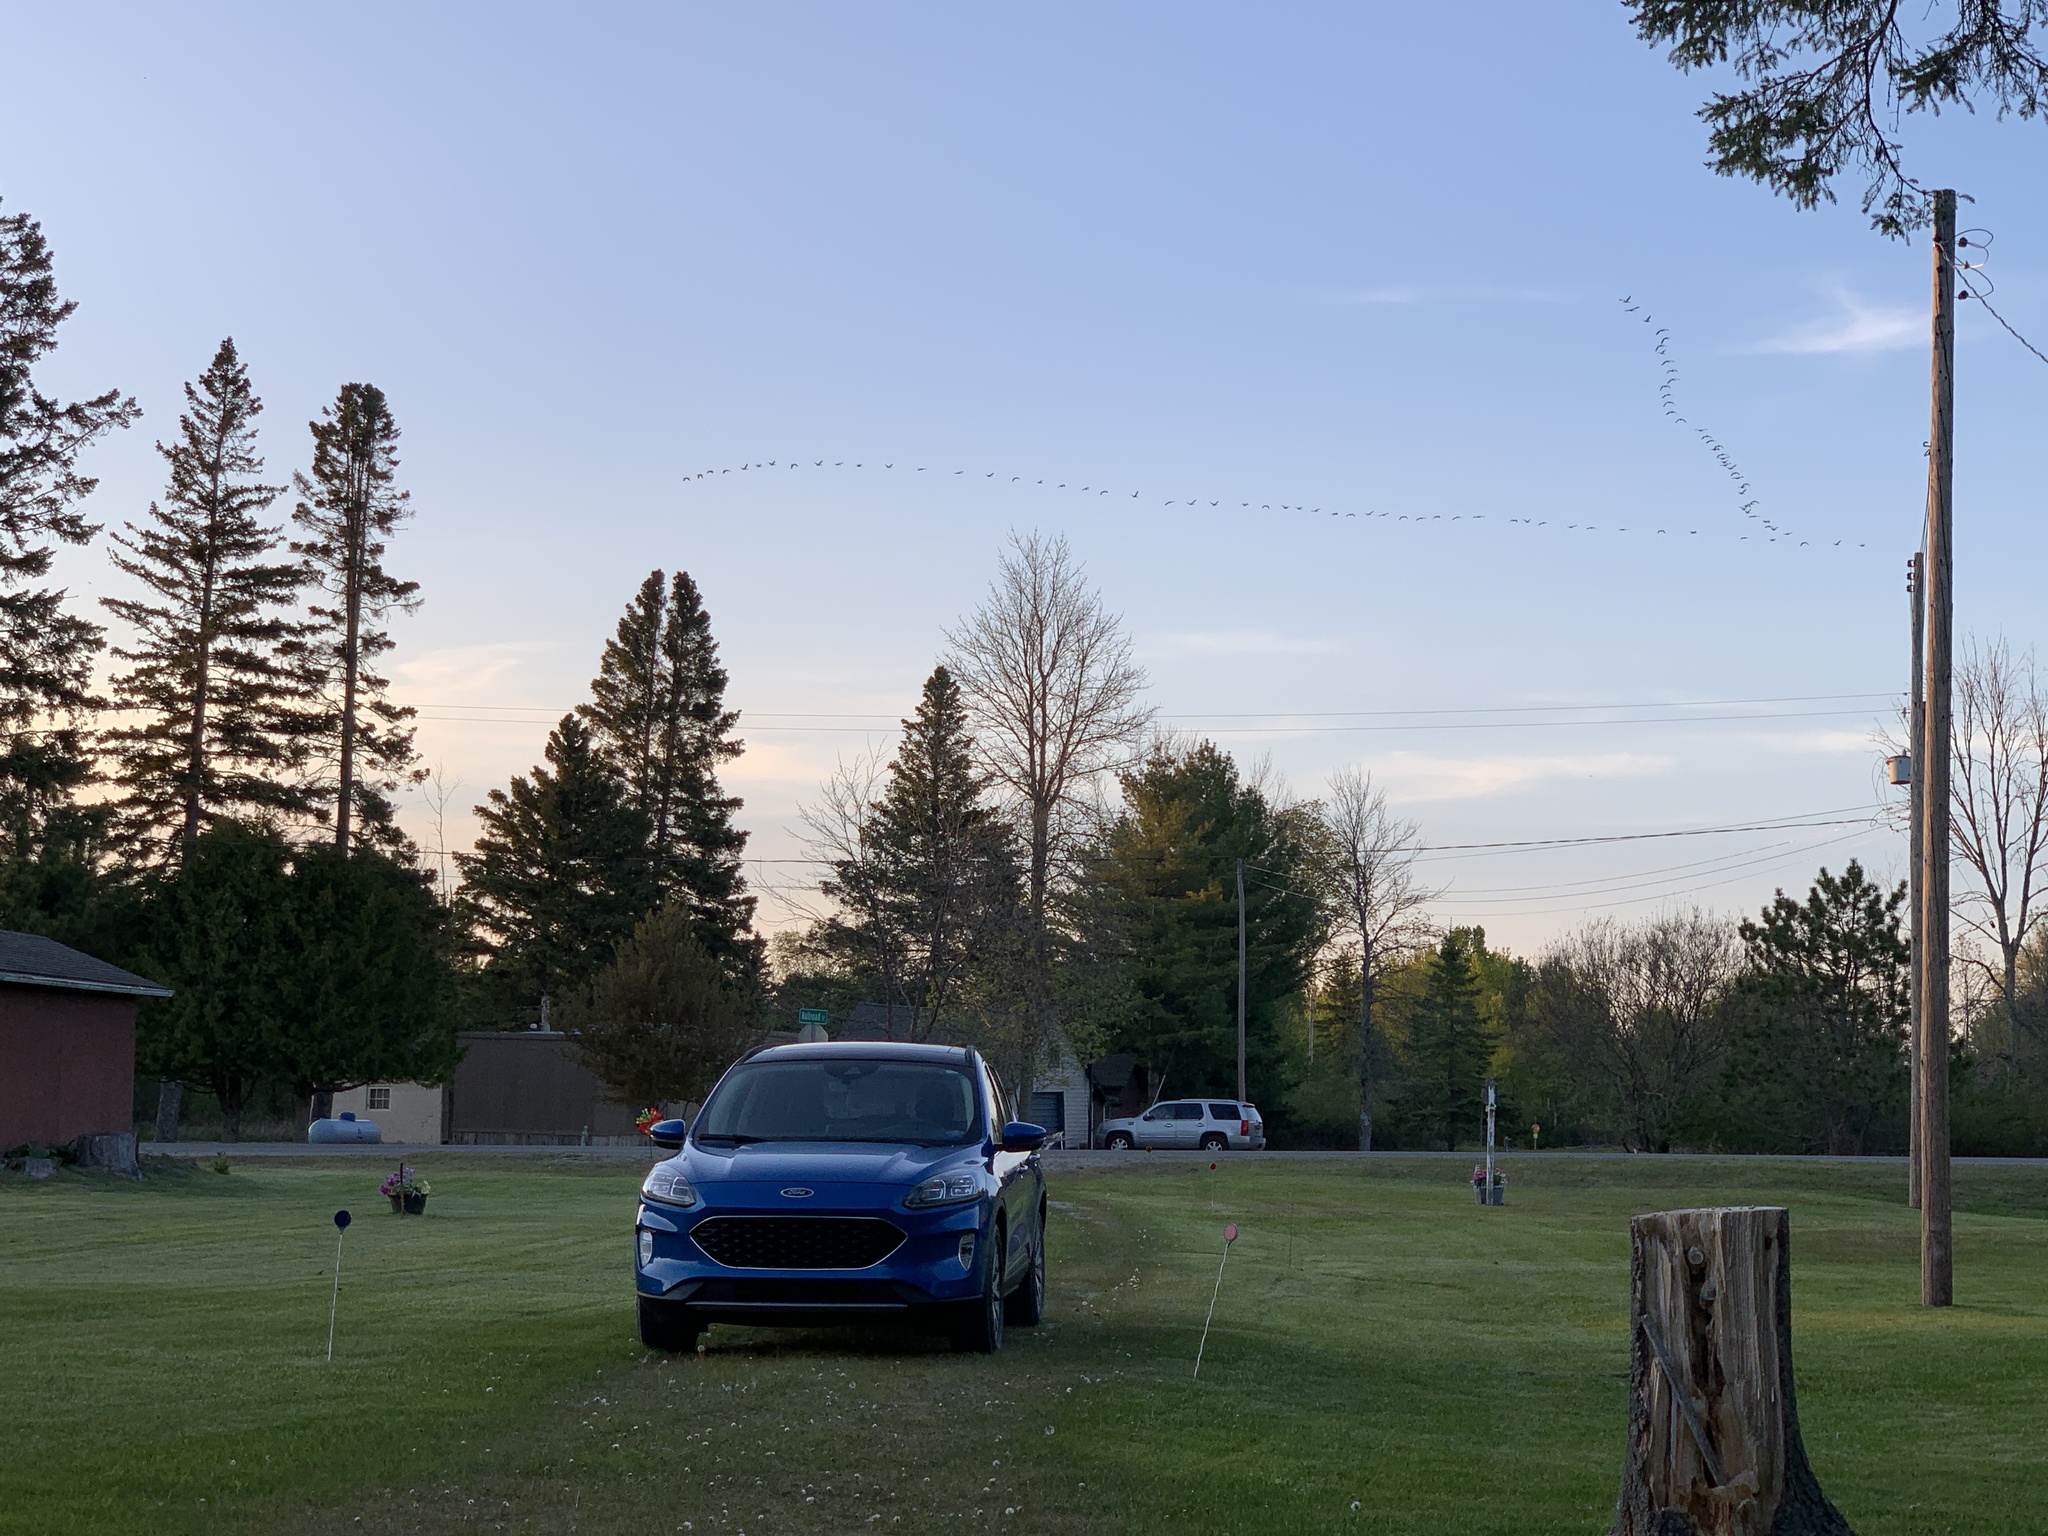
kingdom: Animalia
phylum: Chordata
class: Aves
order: Anseriformes
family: Anatidae
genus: Branta
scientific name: Branta canadensis
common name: Canada goose
